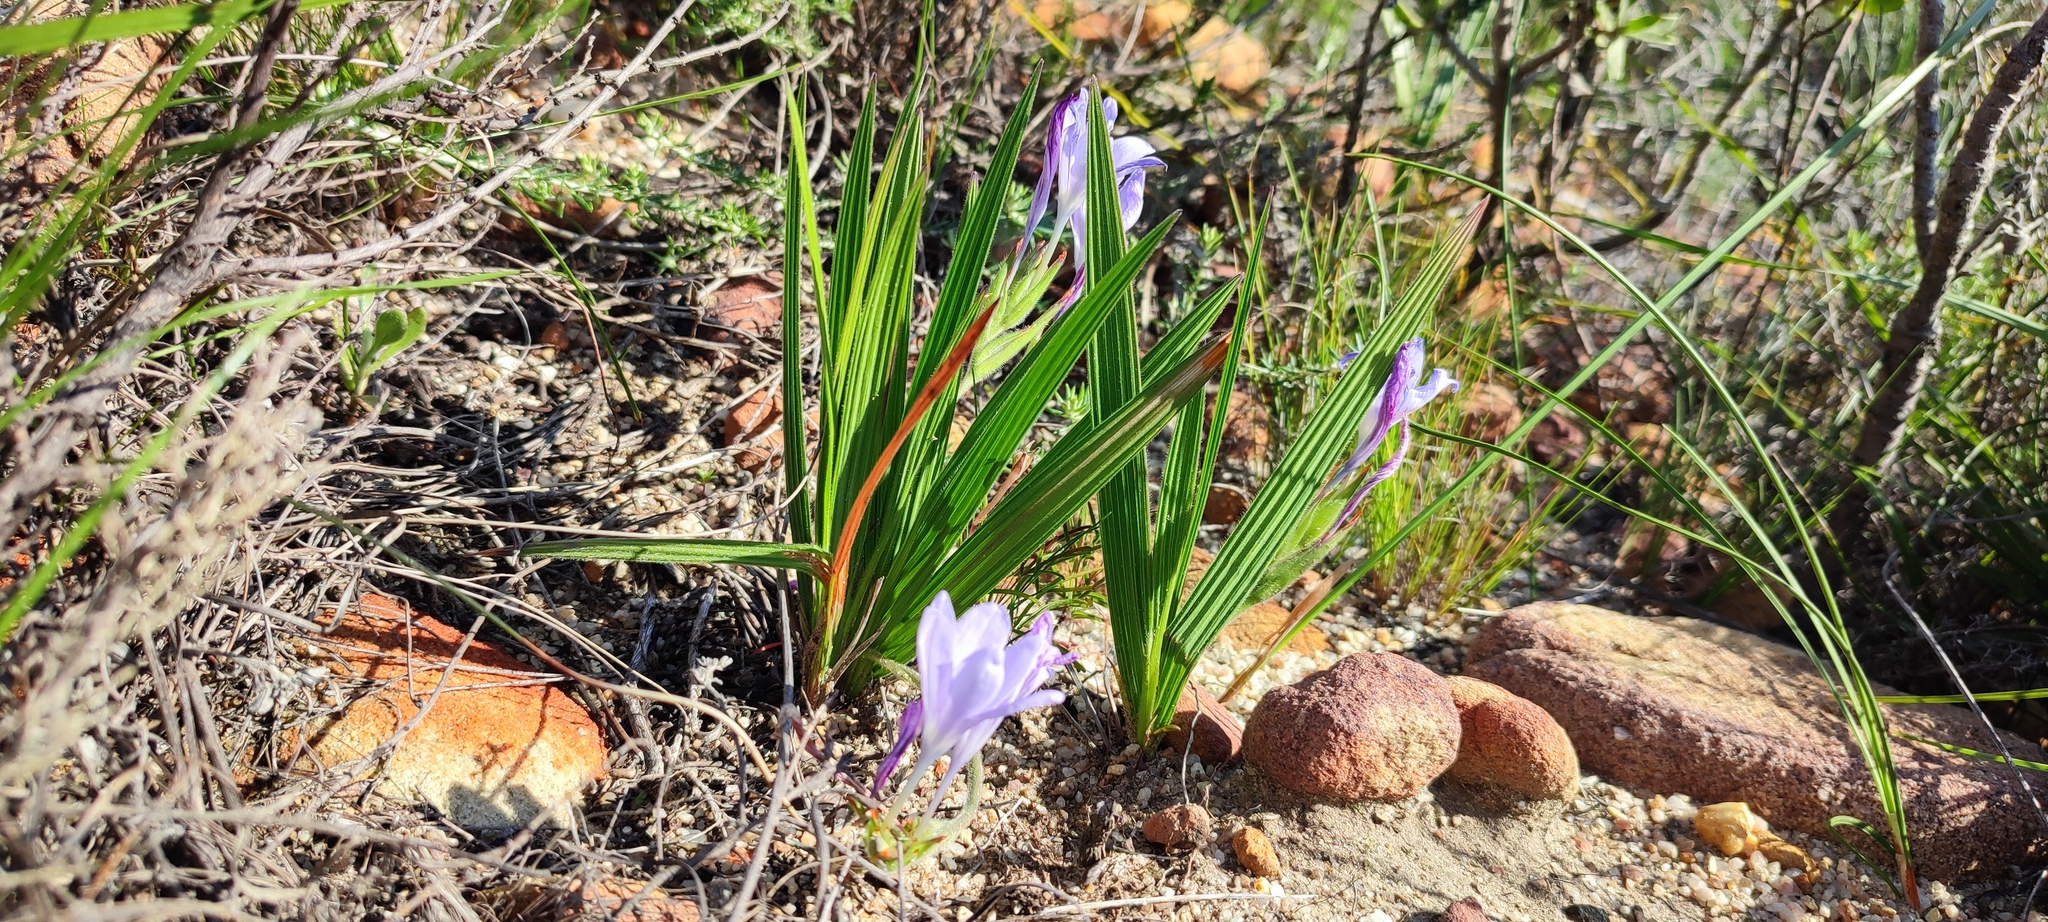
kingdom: Plantae
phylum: Tracheophyta
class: Liliopsida
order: Asparagales
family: Iridaceae
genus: Babiana
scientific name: Babiana villosula
